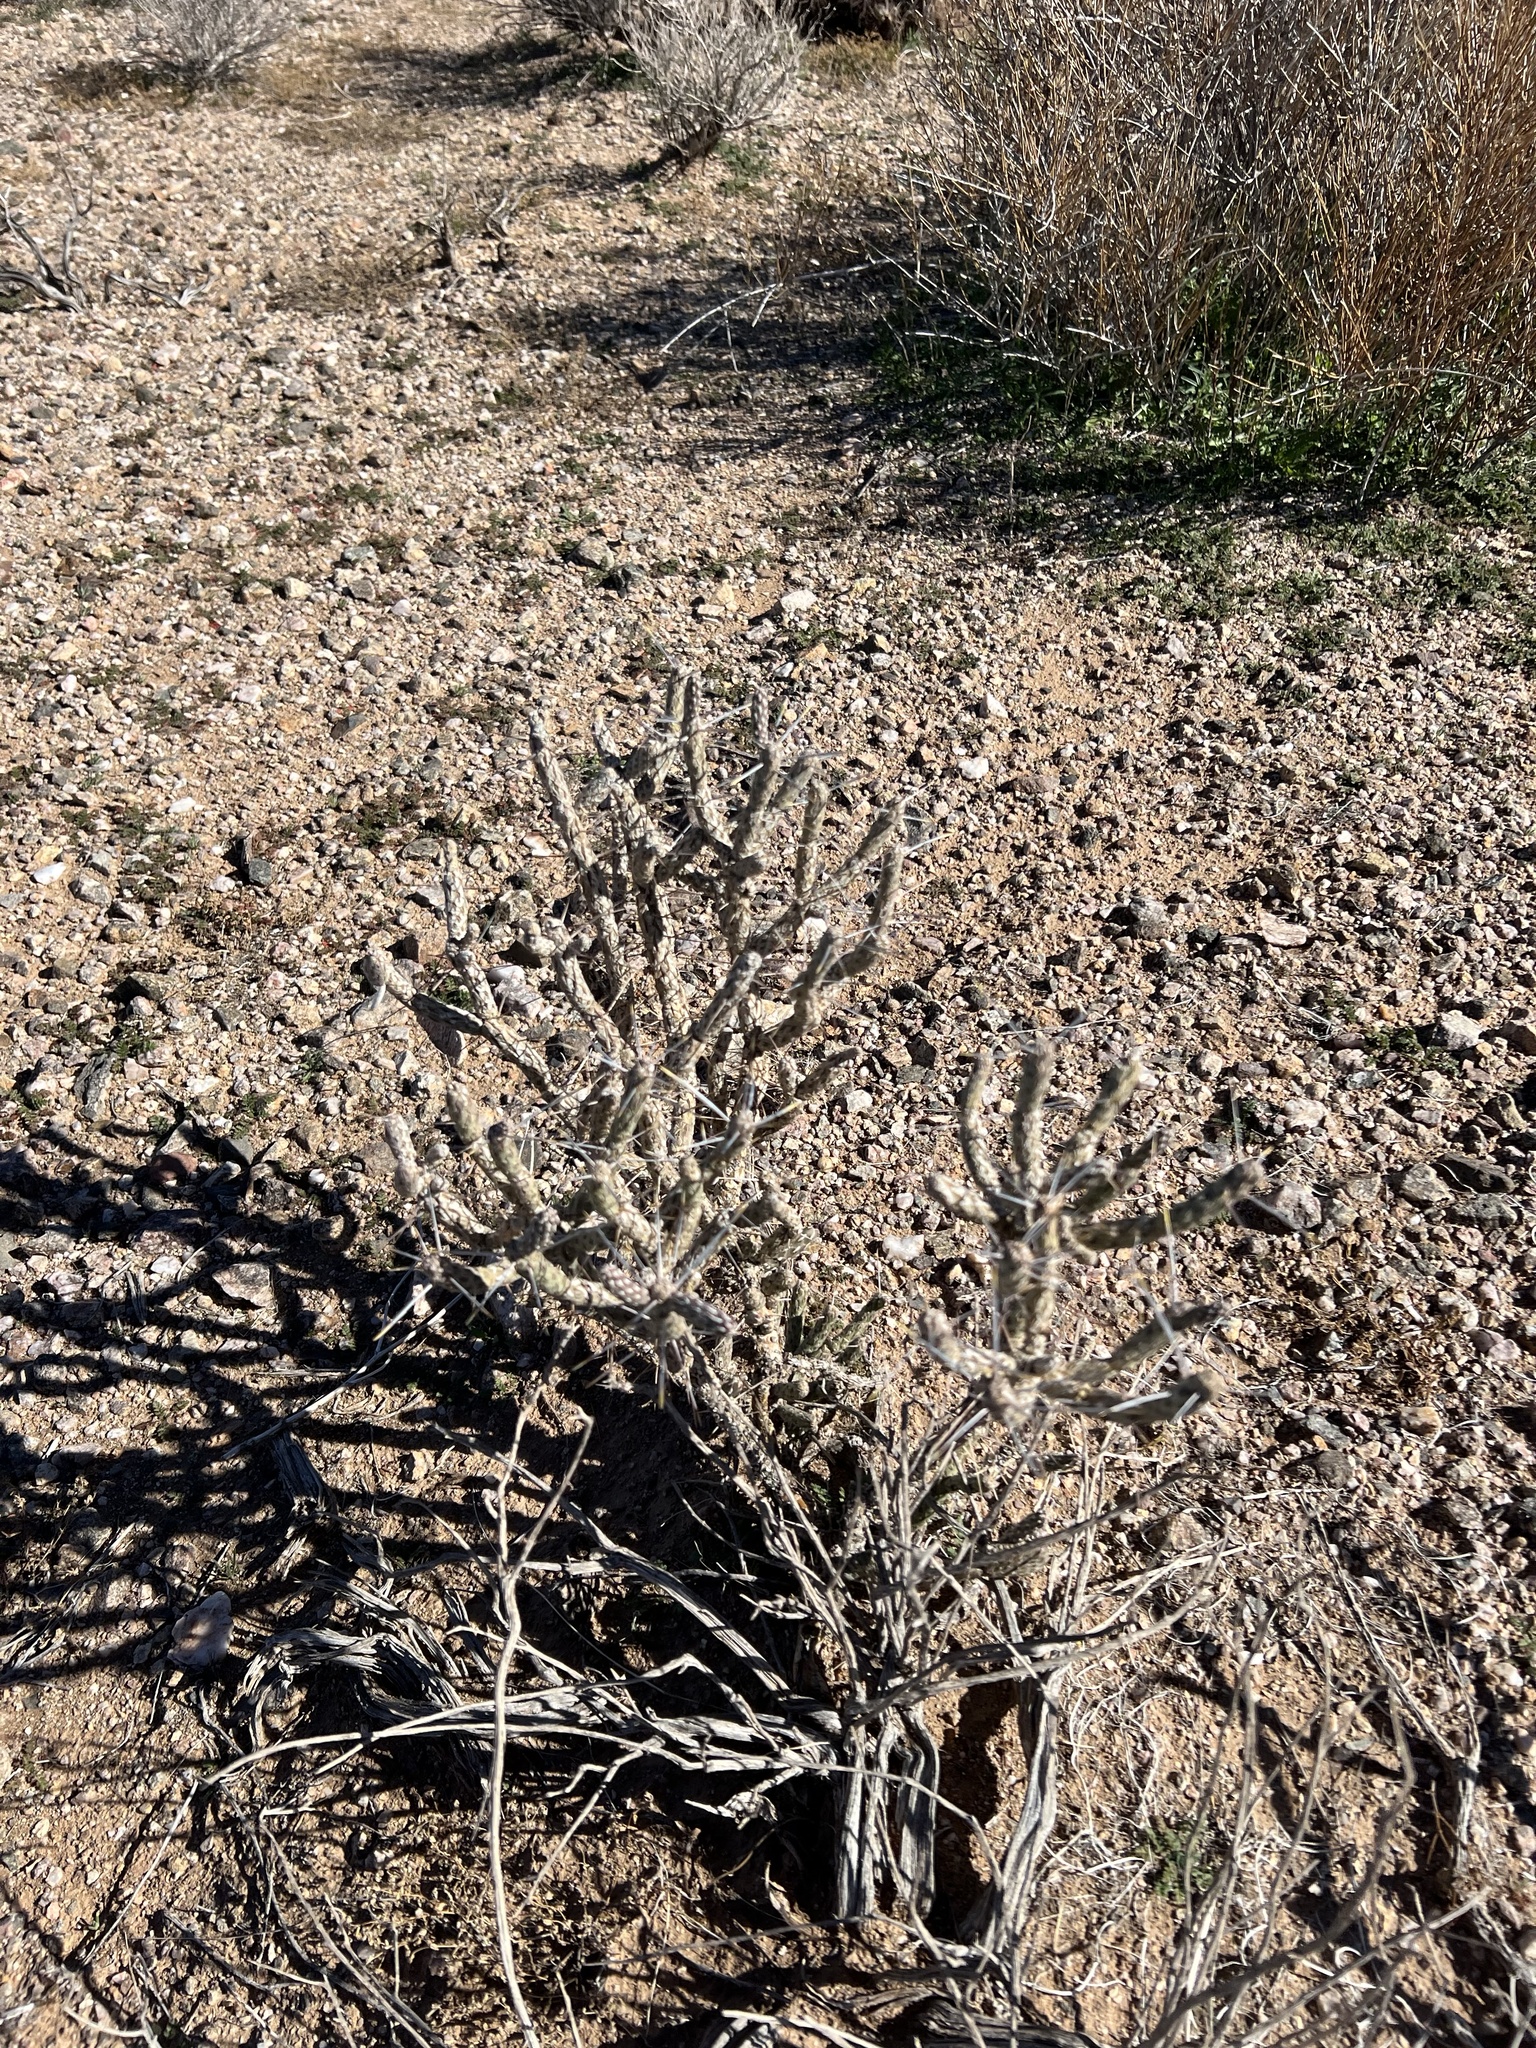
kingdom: Plantae
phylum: Tracheophyta
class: Magnoliopsida
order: Caryophyllales
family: Cactaceae
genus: Cylindropuntia
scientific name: Cylindropuntia ramosissima
